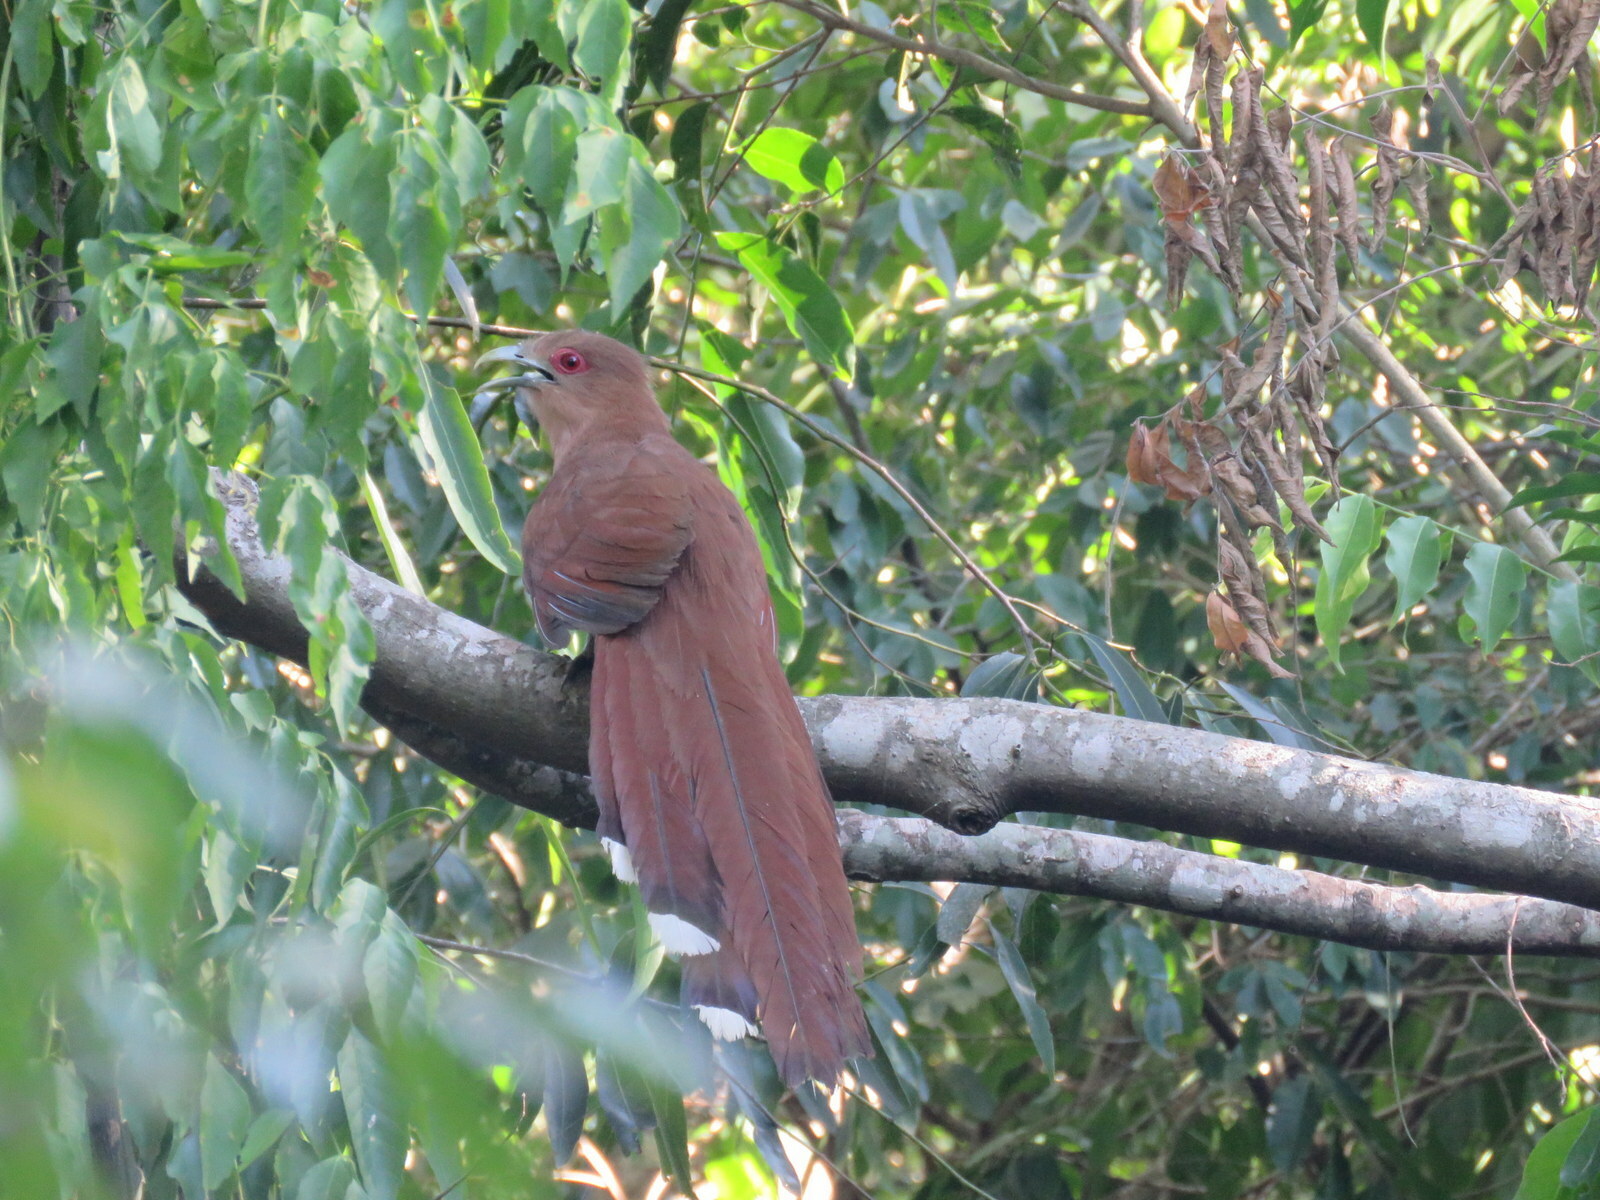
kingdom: Animalia
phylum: Chordata
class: Aves
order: Cuculiformes
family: Cuculidae
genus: Piaya
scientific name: Piaya cayana
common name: Squirrel cuckoo
